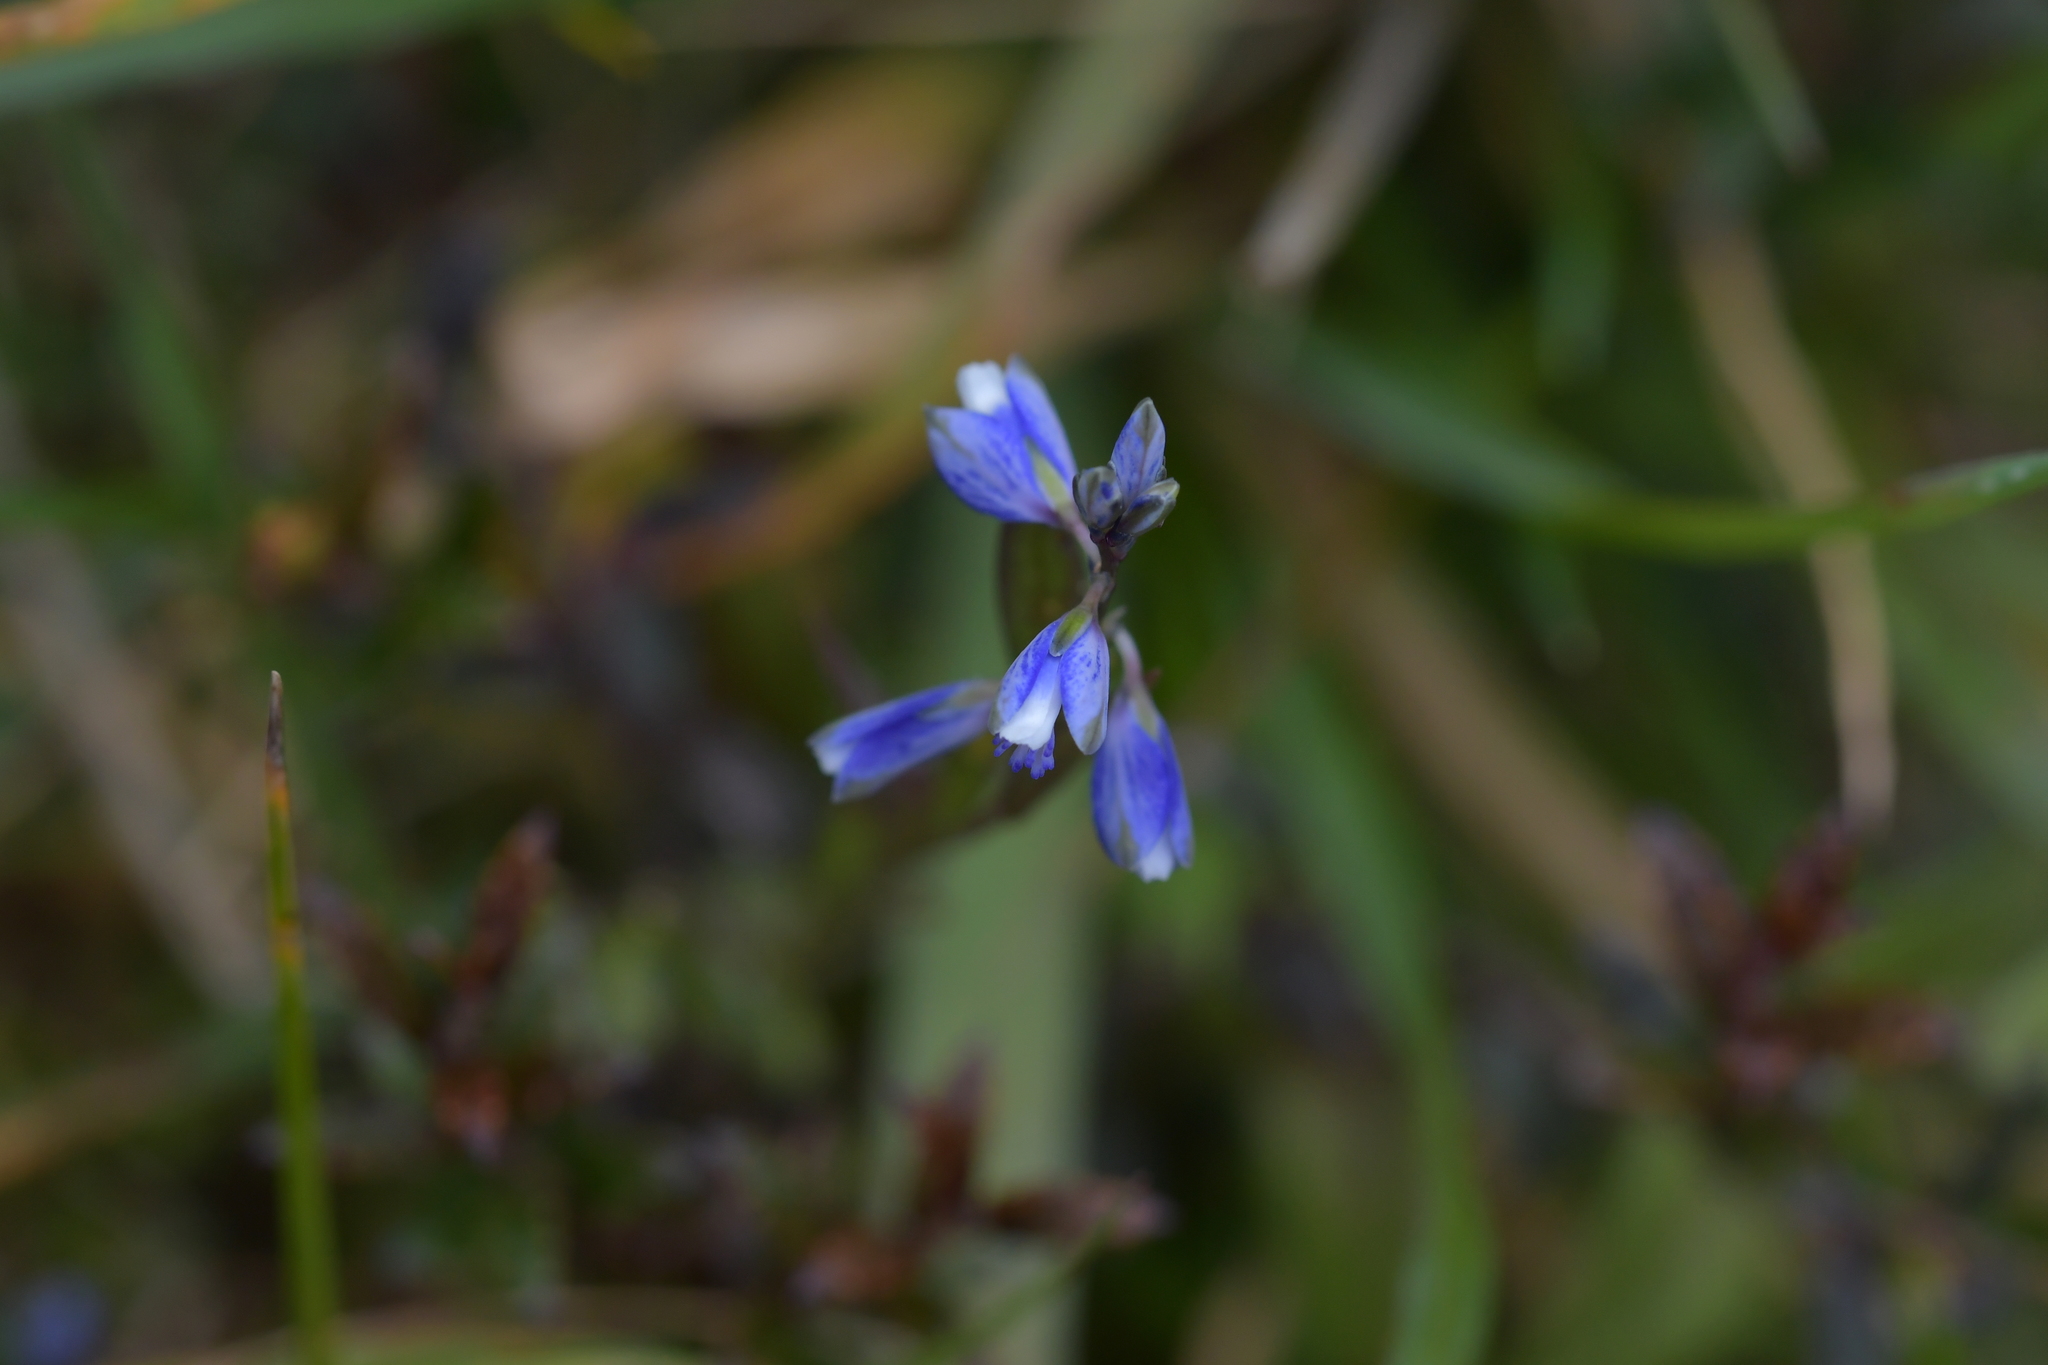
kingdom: Plantae
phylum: Tracheophyta
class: Magnoliopsida
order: Fabales
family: Polygalaceae
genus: Polygala
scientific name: Polygala serpyllifolia
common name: Heath milkwort
